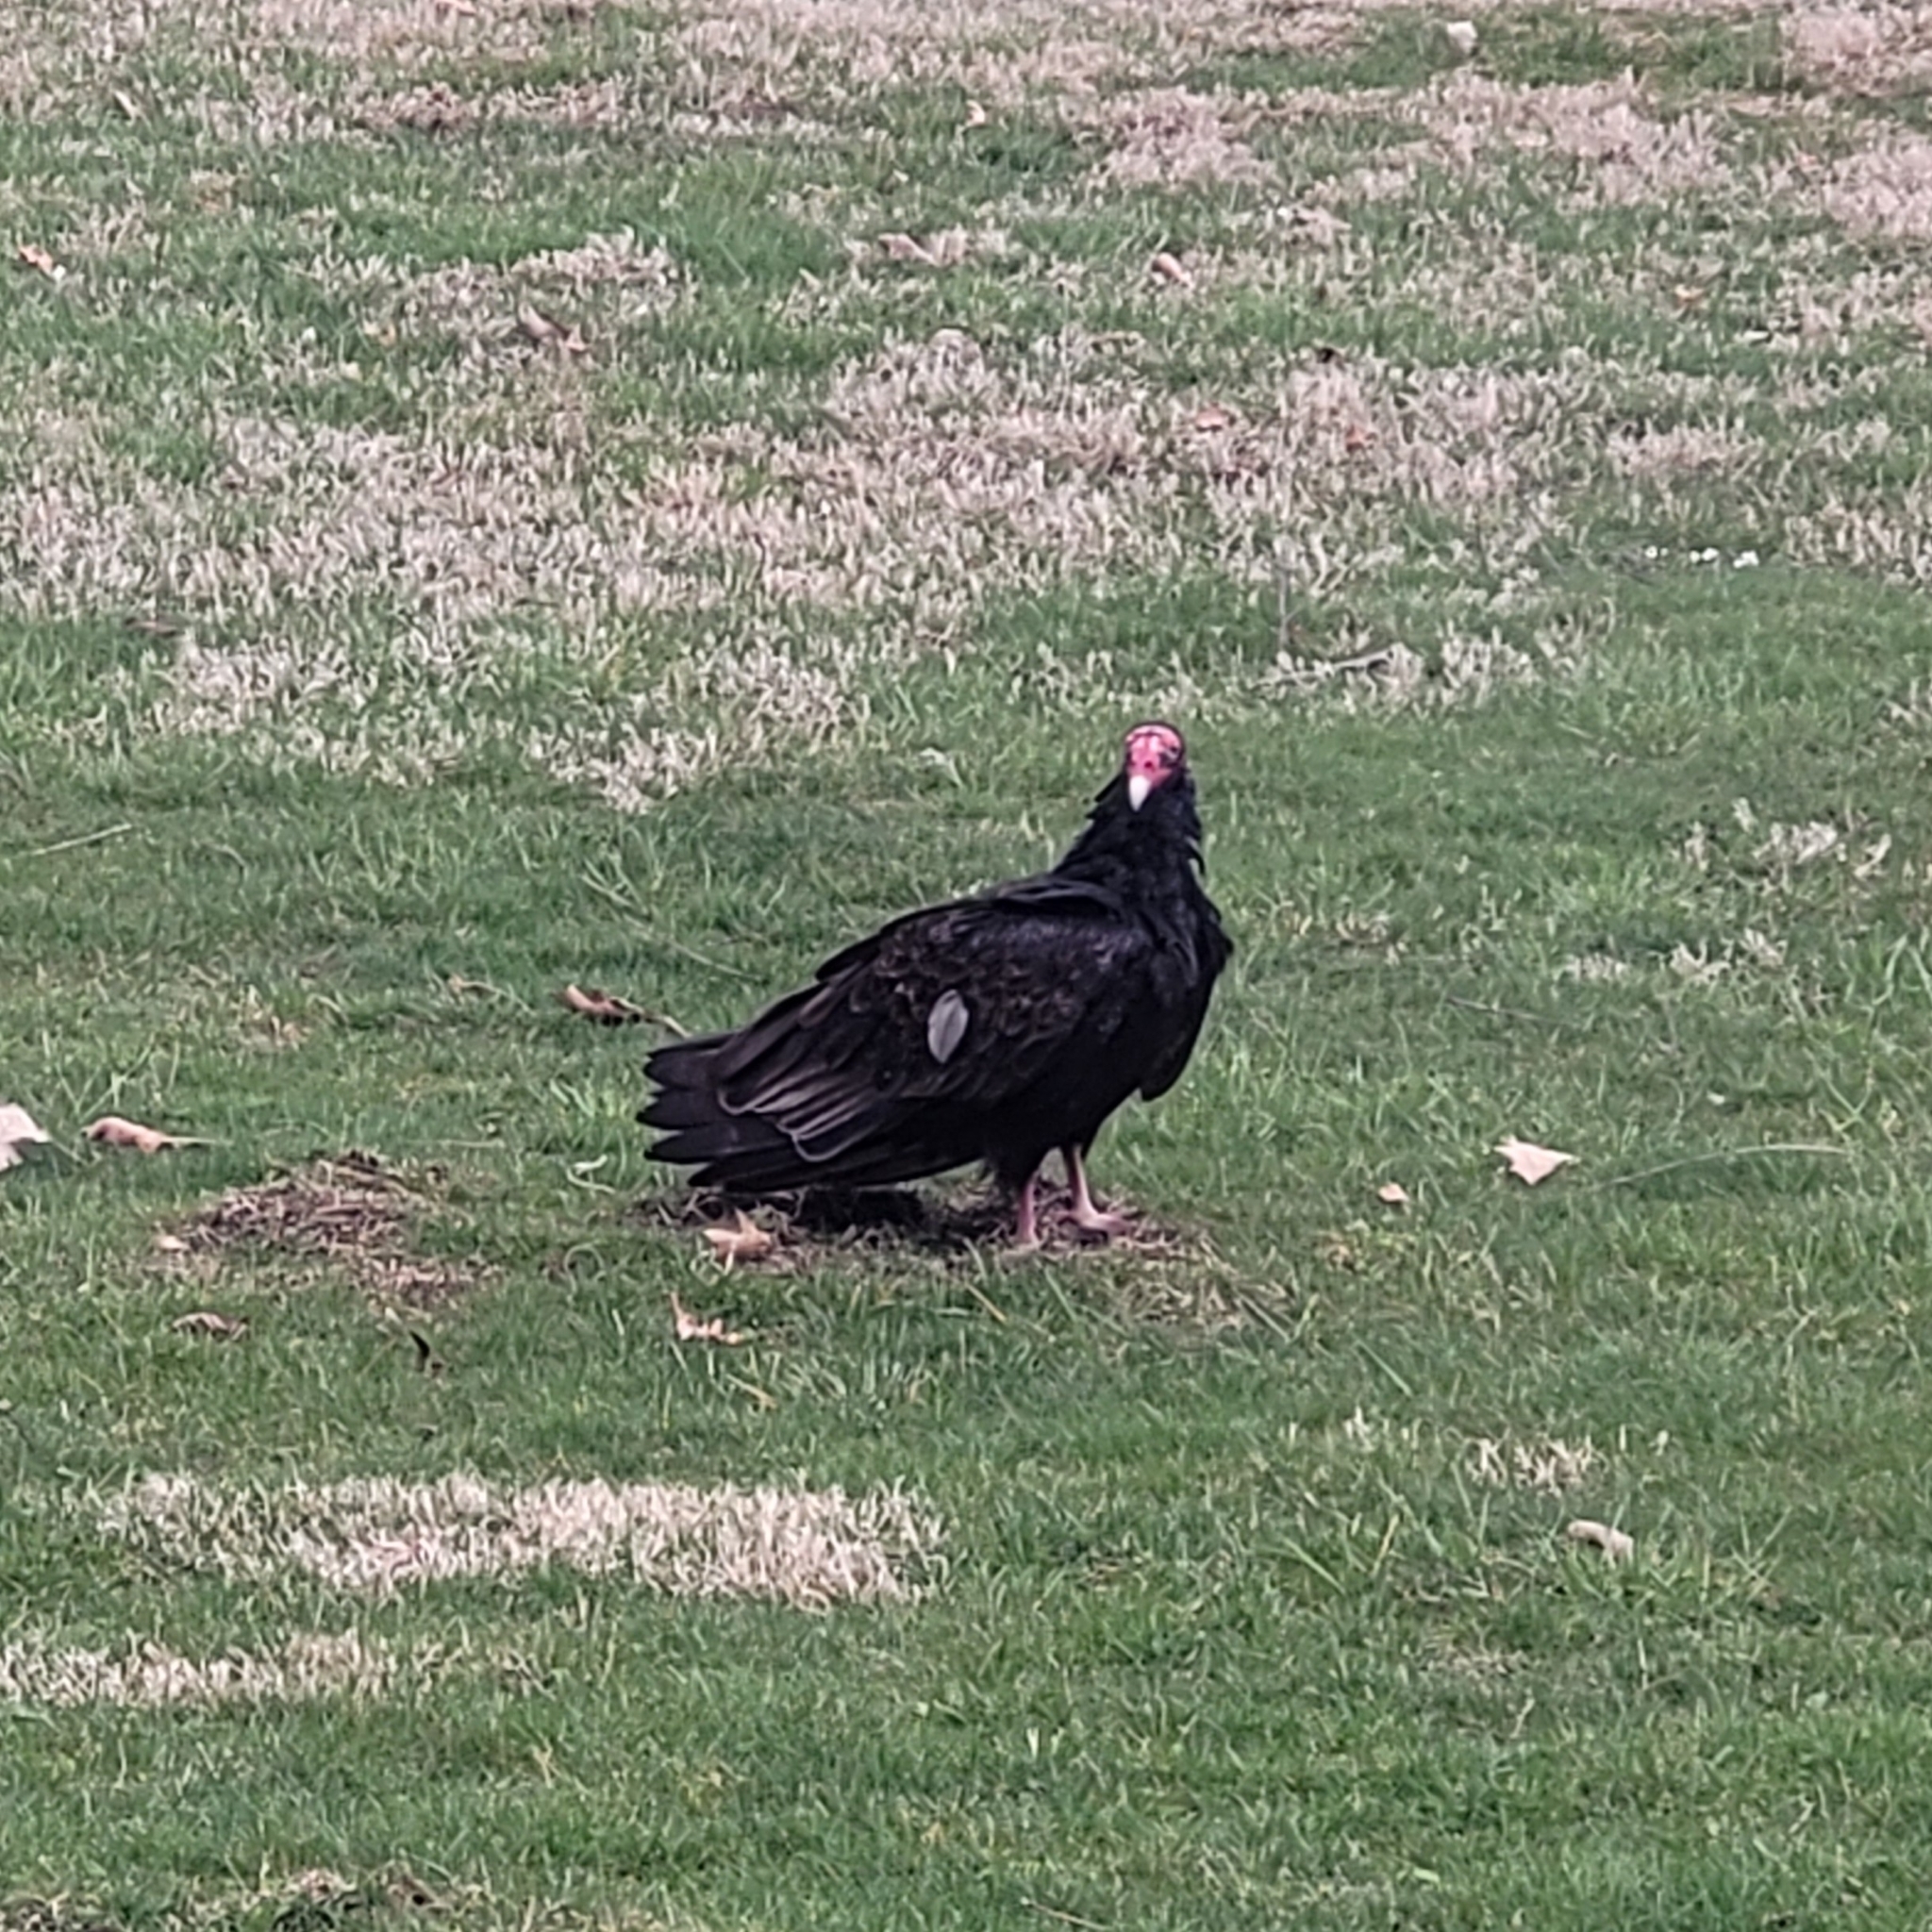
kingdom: Animalia
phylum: Chordata
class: Aves
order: Accipitriformes
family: Cathartidae
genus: Cathartes
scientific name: Cathartes aura
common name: Turkey vulture
